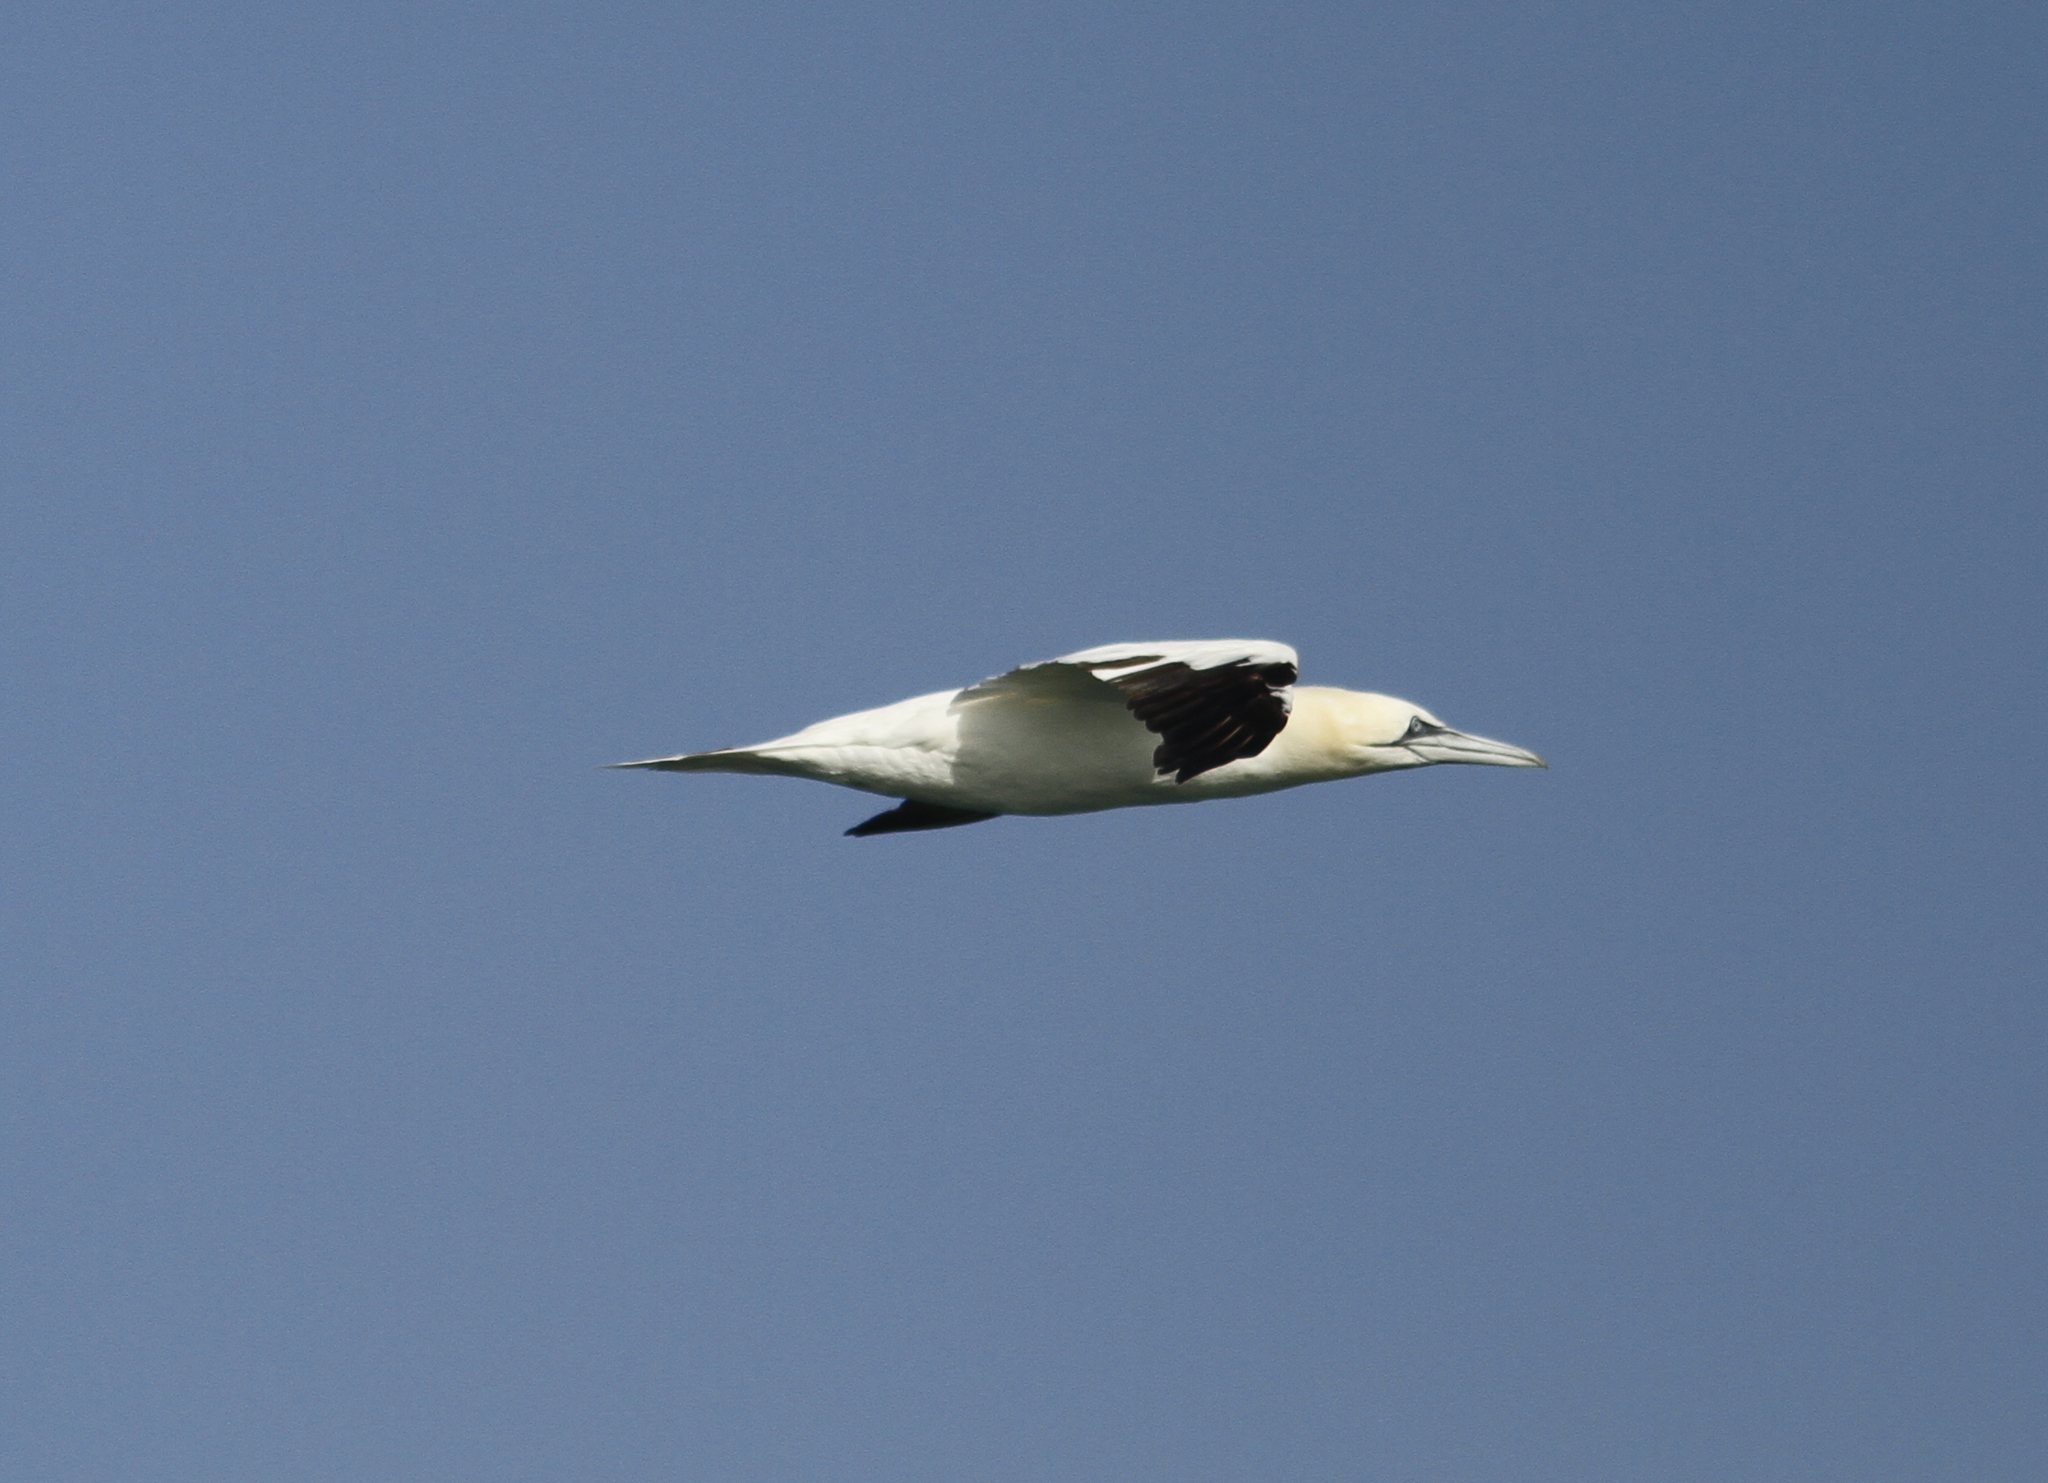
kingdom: Animalia
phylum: Chordata
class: Aves
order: Suliformes
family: Sulidae
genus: Morus
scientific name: Morus bassanus
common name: Northern gannet
